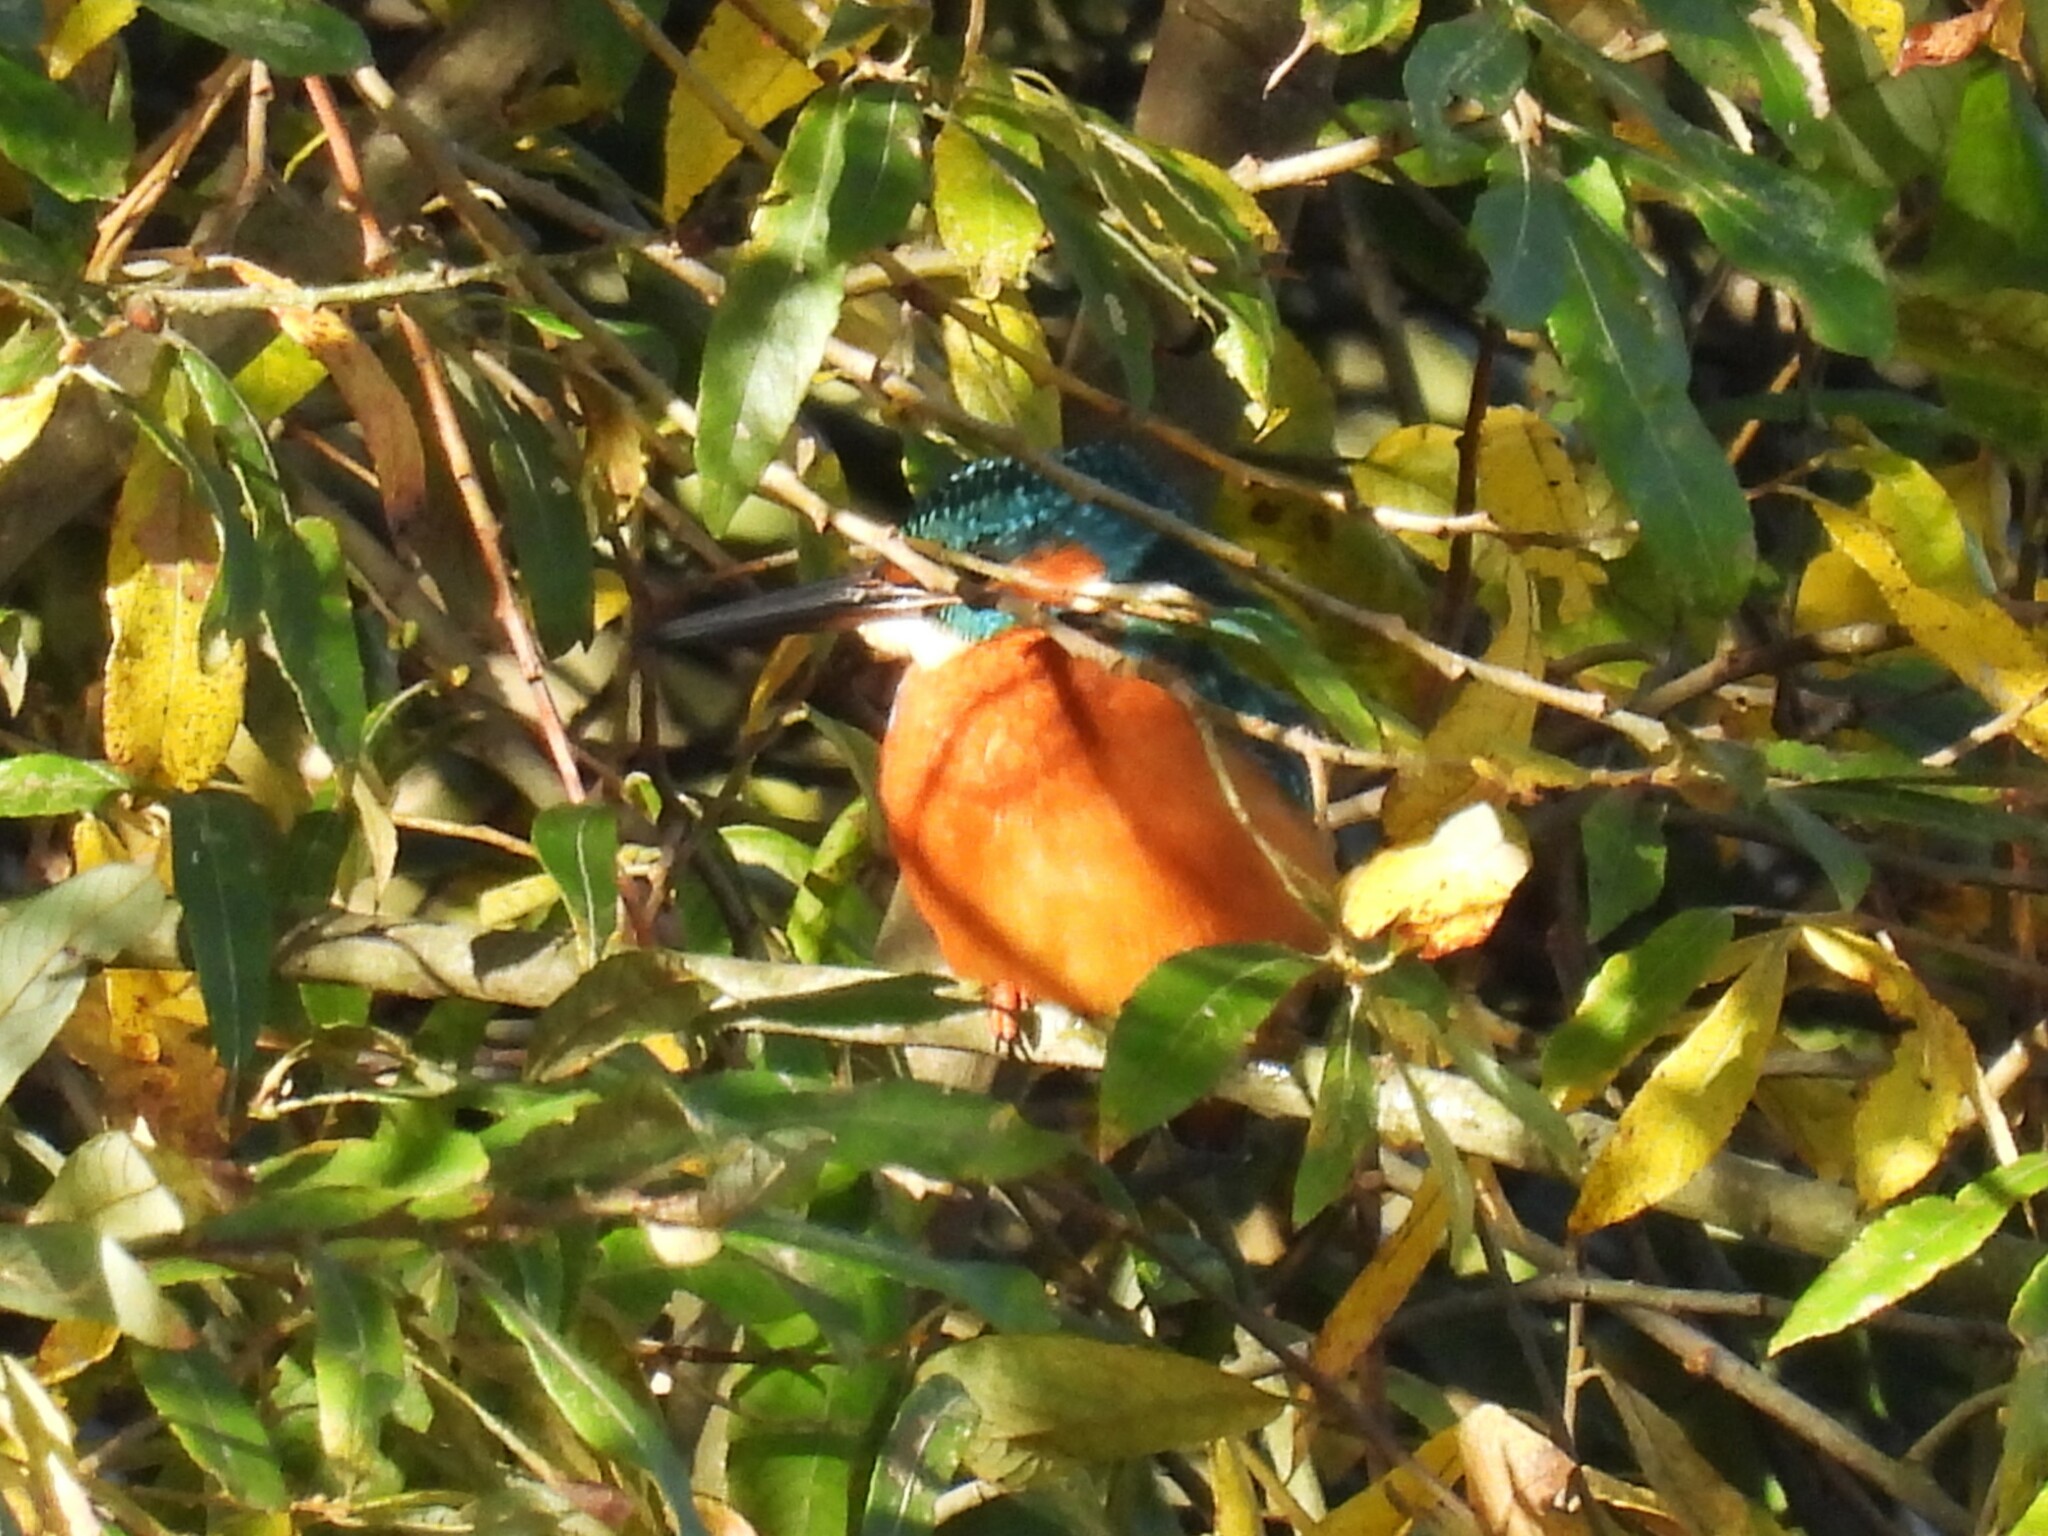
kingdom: Animalia
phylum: Chordata
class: Aves
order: Coraciiformes
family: Alcedinidae
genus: Alcedo
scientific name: Alcedo atthis
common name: Common kingfisher
